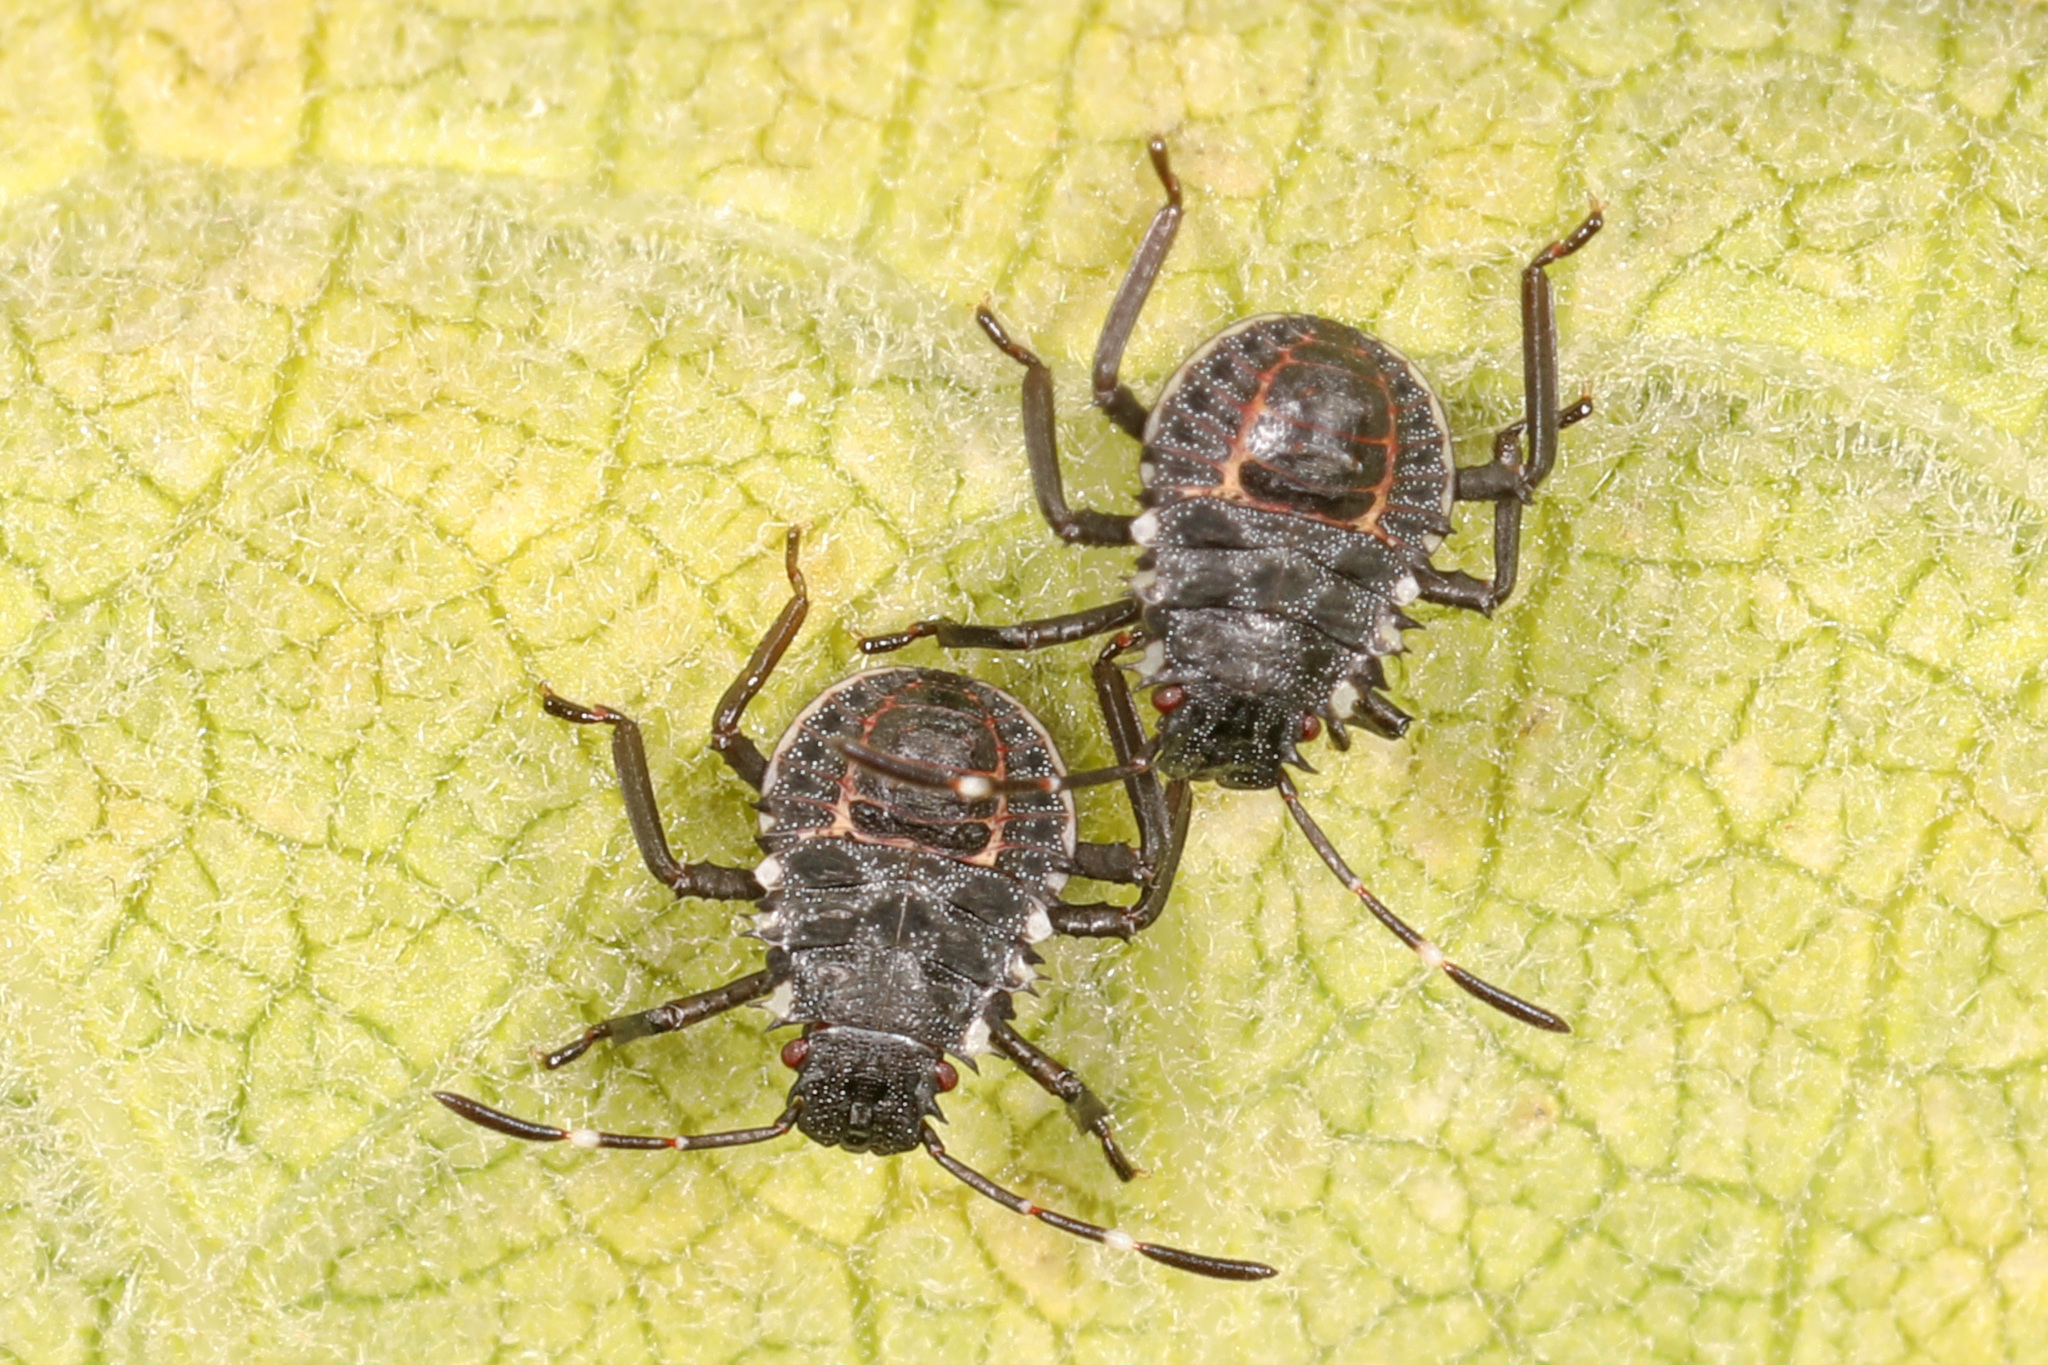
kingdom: Animalia
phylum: Arthropoda
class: Insecta
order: Hemiptera
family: Pentatomidae
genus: Halyomorpha
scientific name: Halyomorpha halys
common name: Brown marmorated stink bug
